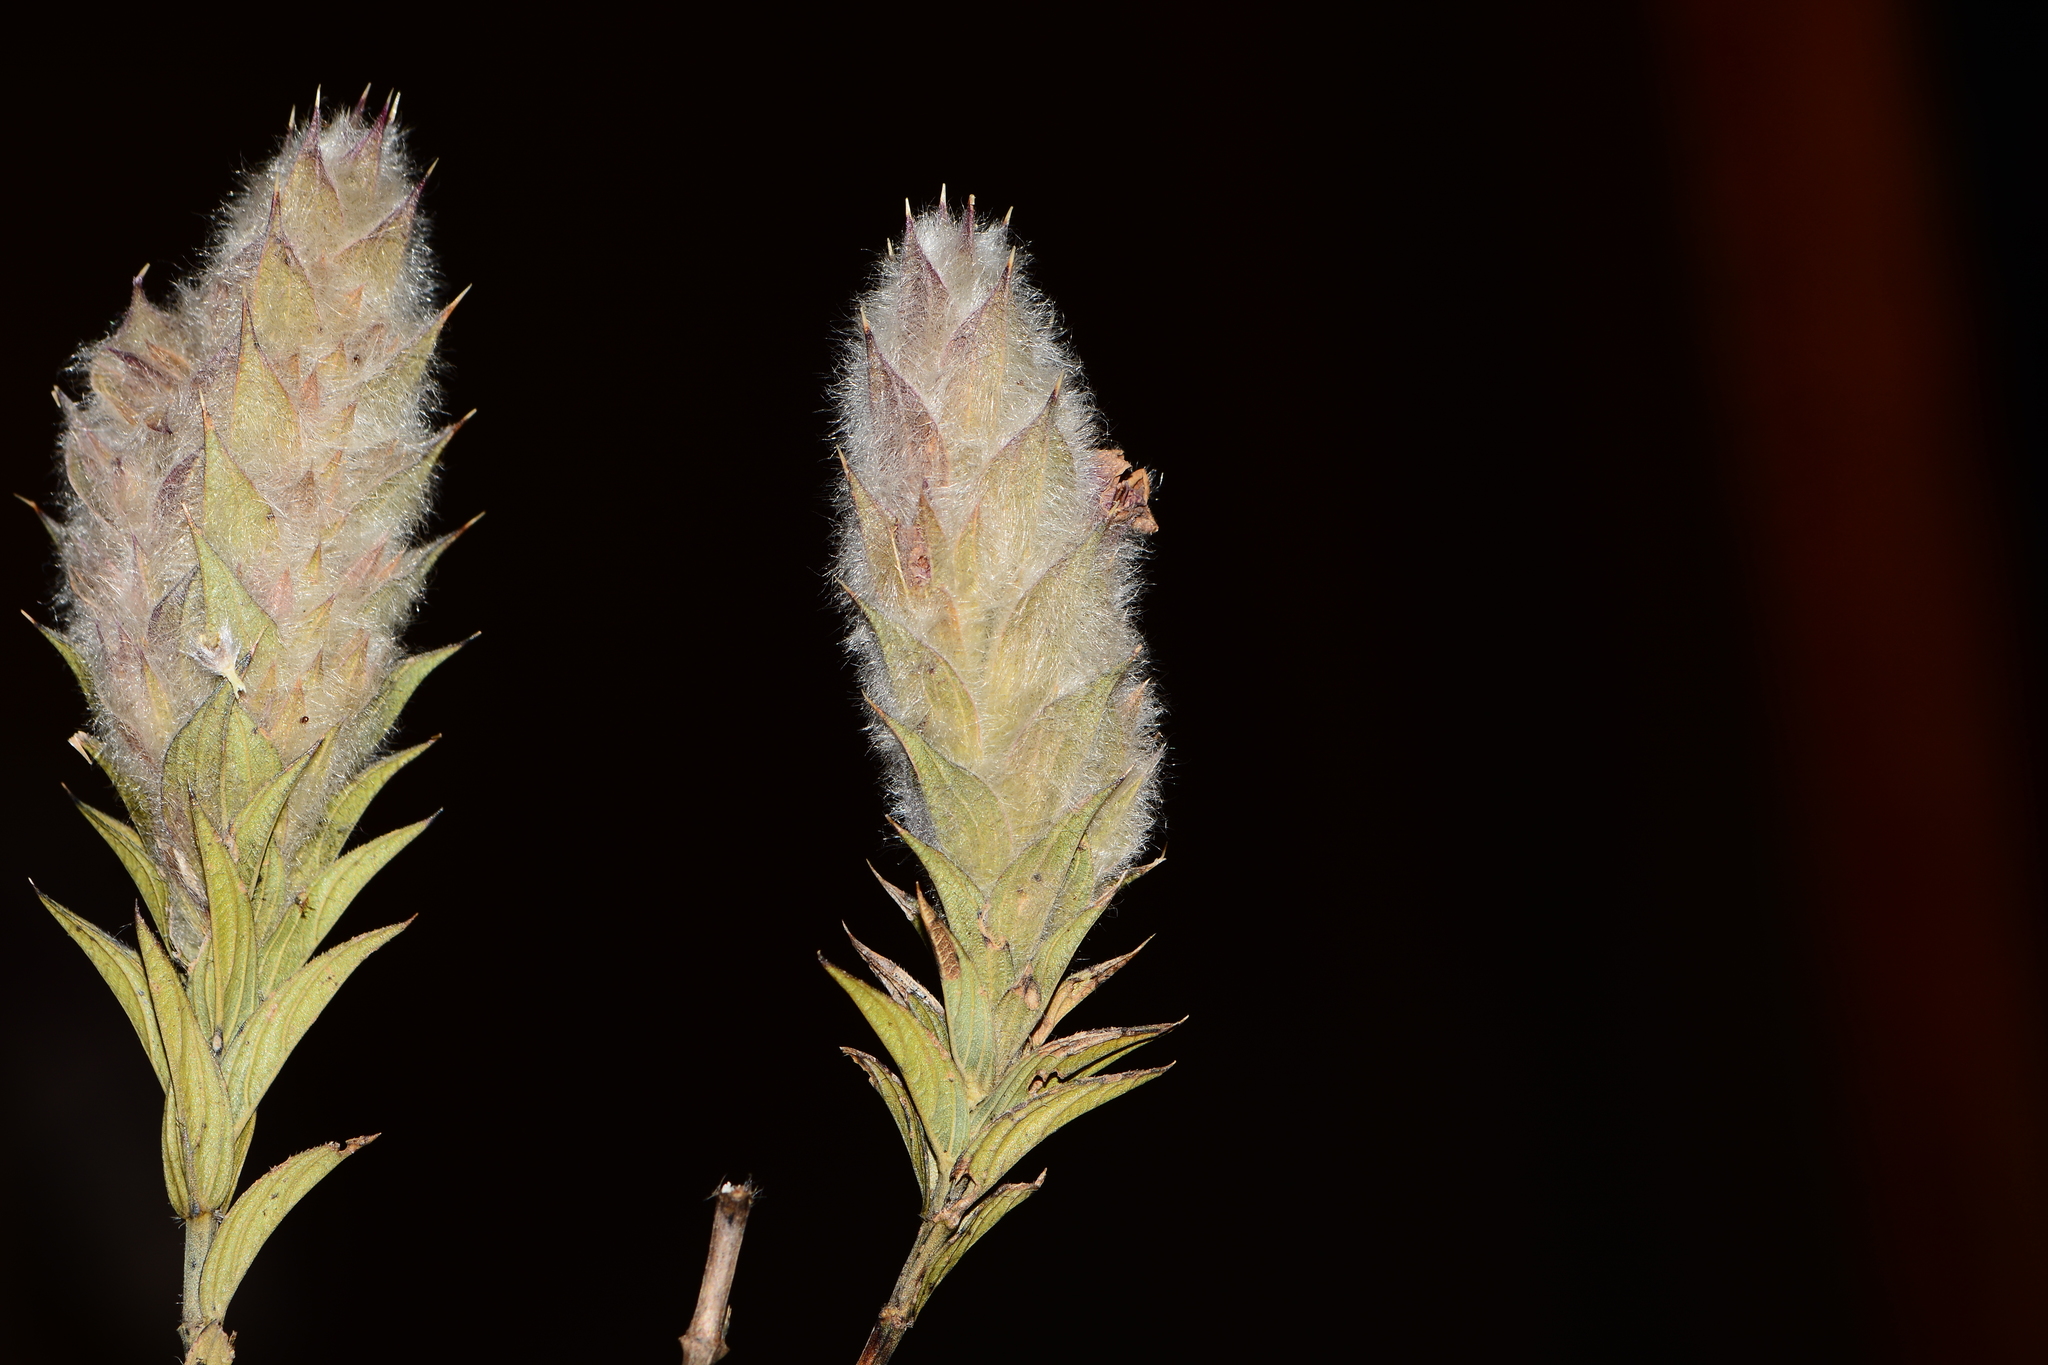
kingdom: Plantae
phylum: Tracheophyta
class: Magnoliopsida
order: Lamiales
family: Acanthaceae
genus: Lepidagathis
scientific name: Lepidagathis clavata
